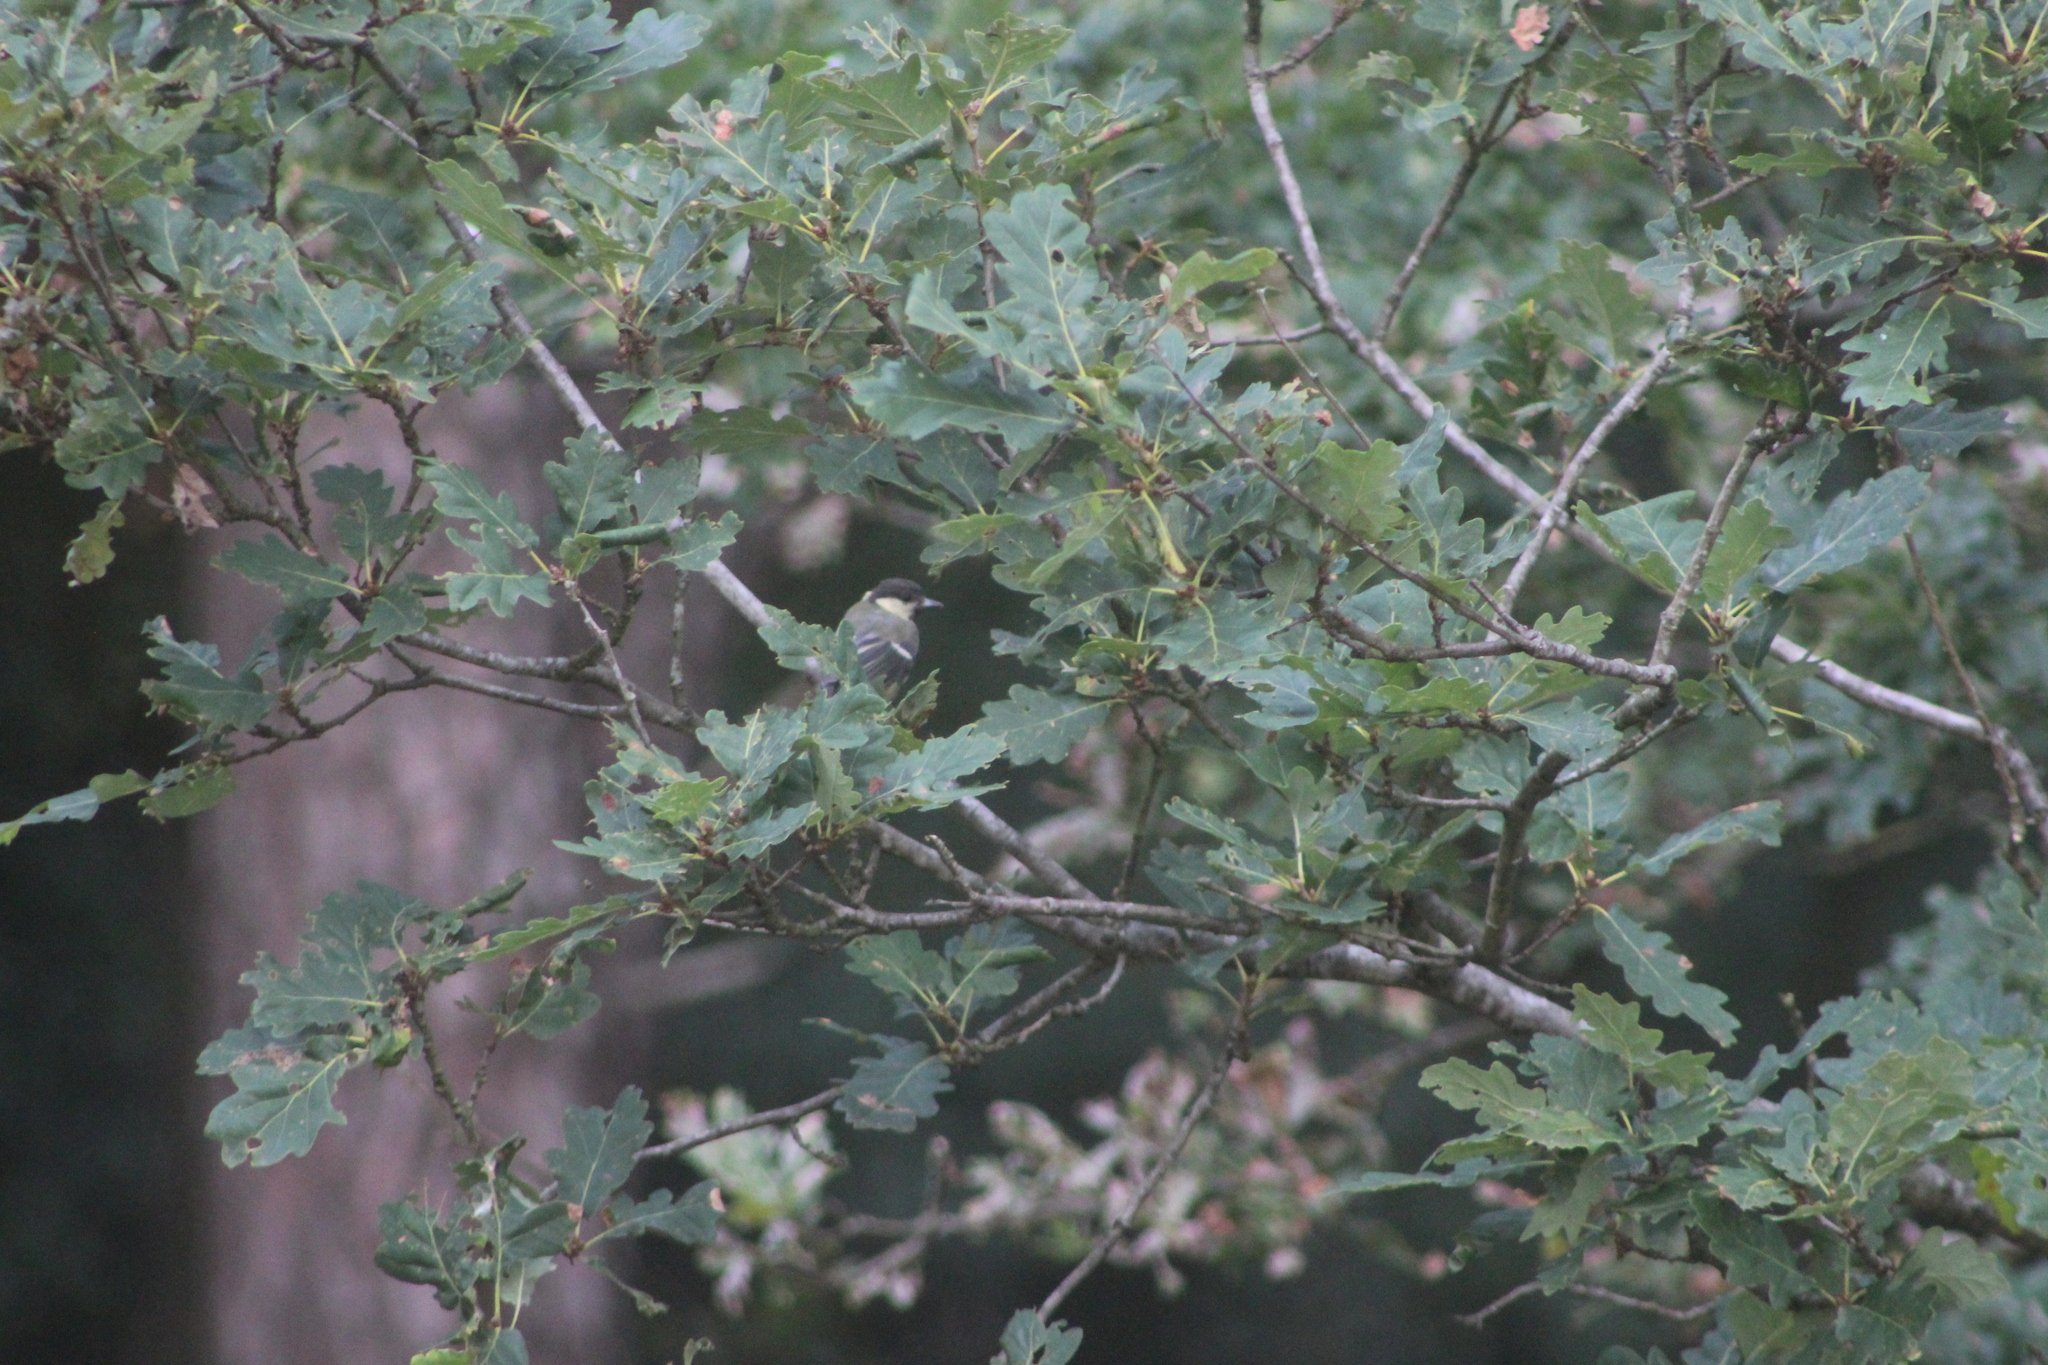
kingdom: Animalia
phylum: Chordata
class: Aves
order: Passeriformes
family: Paridae
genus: Parus
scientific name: Parus major
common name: Great tit
